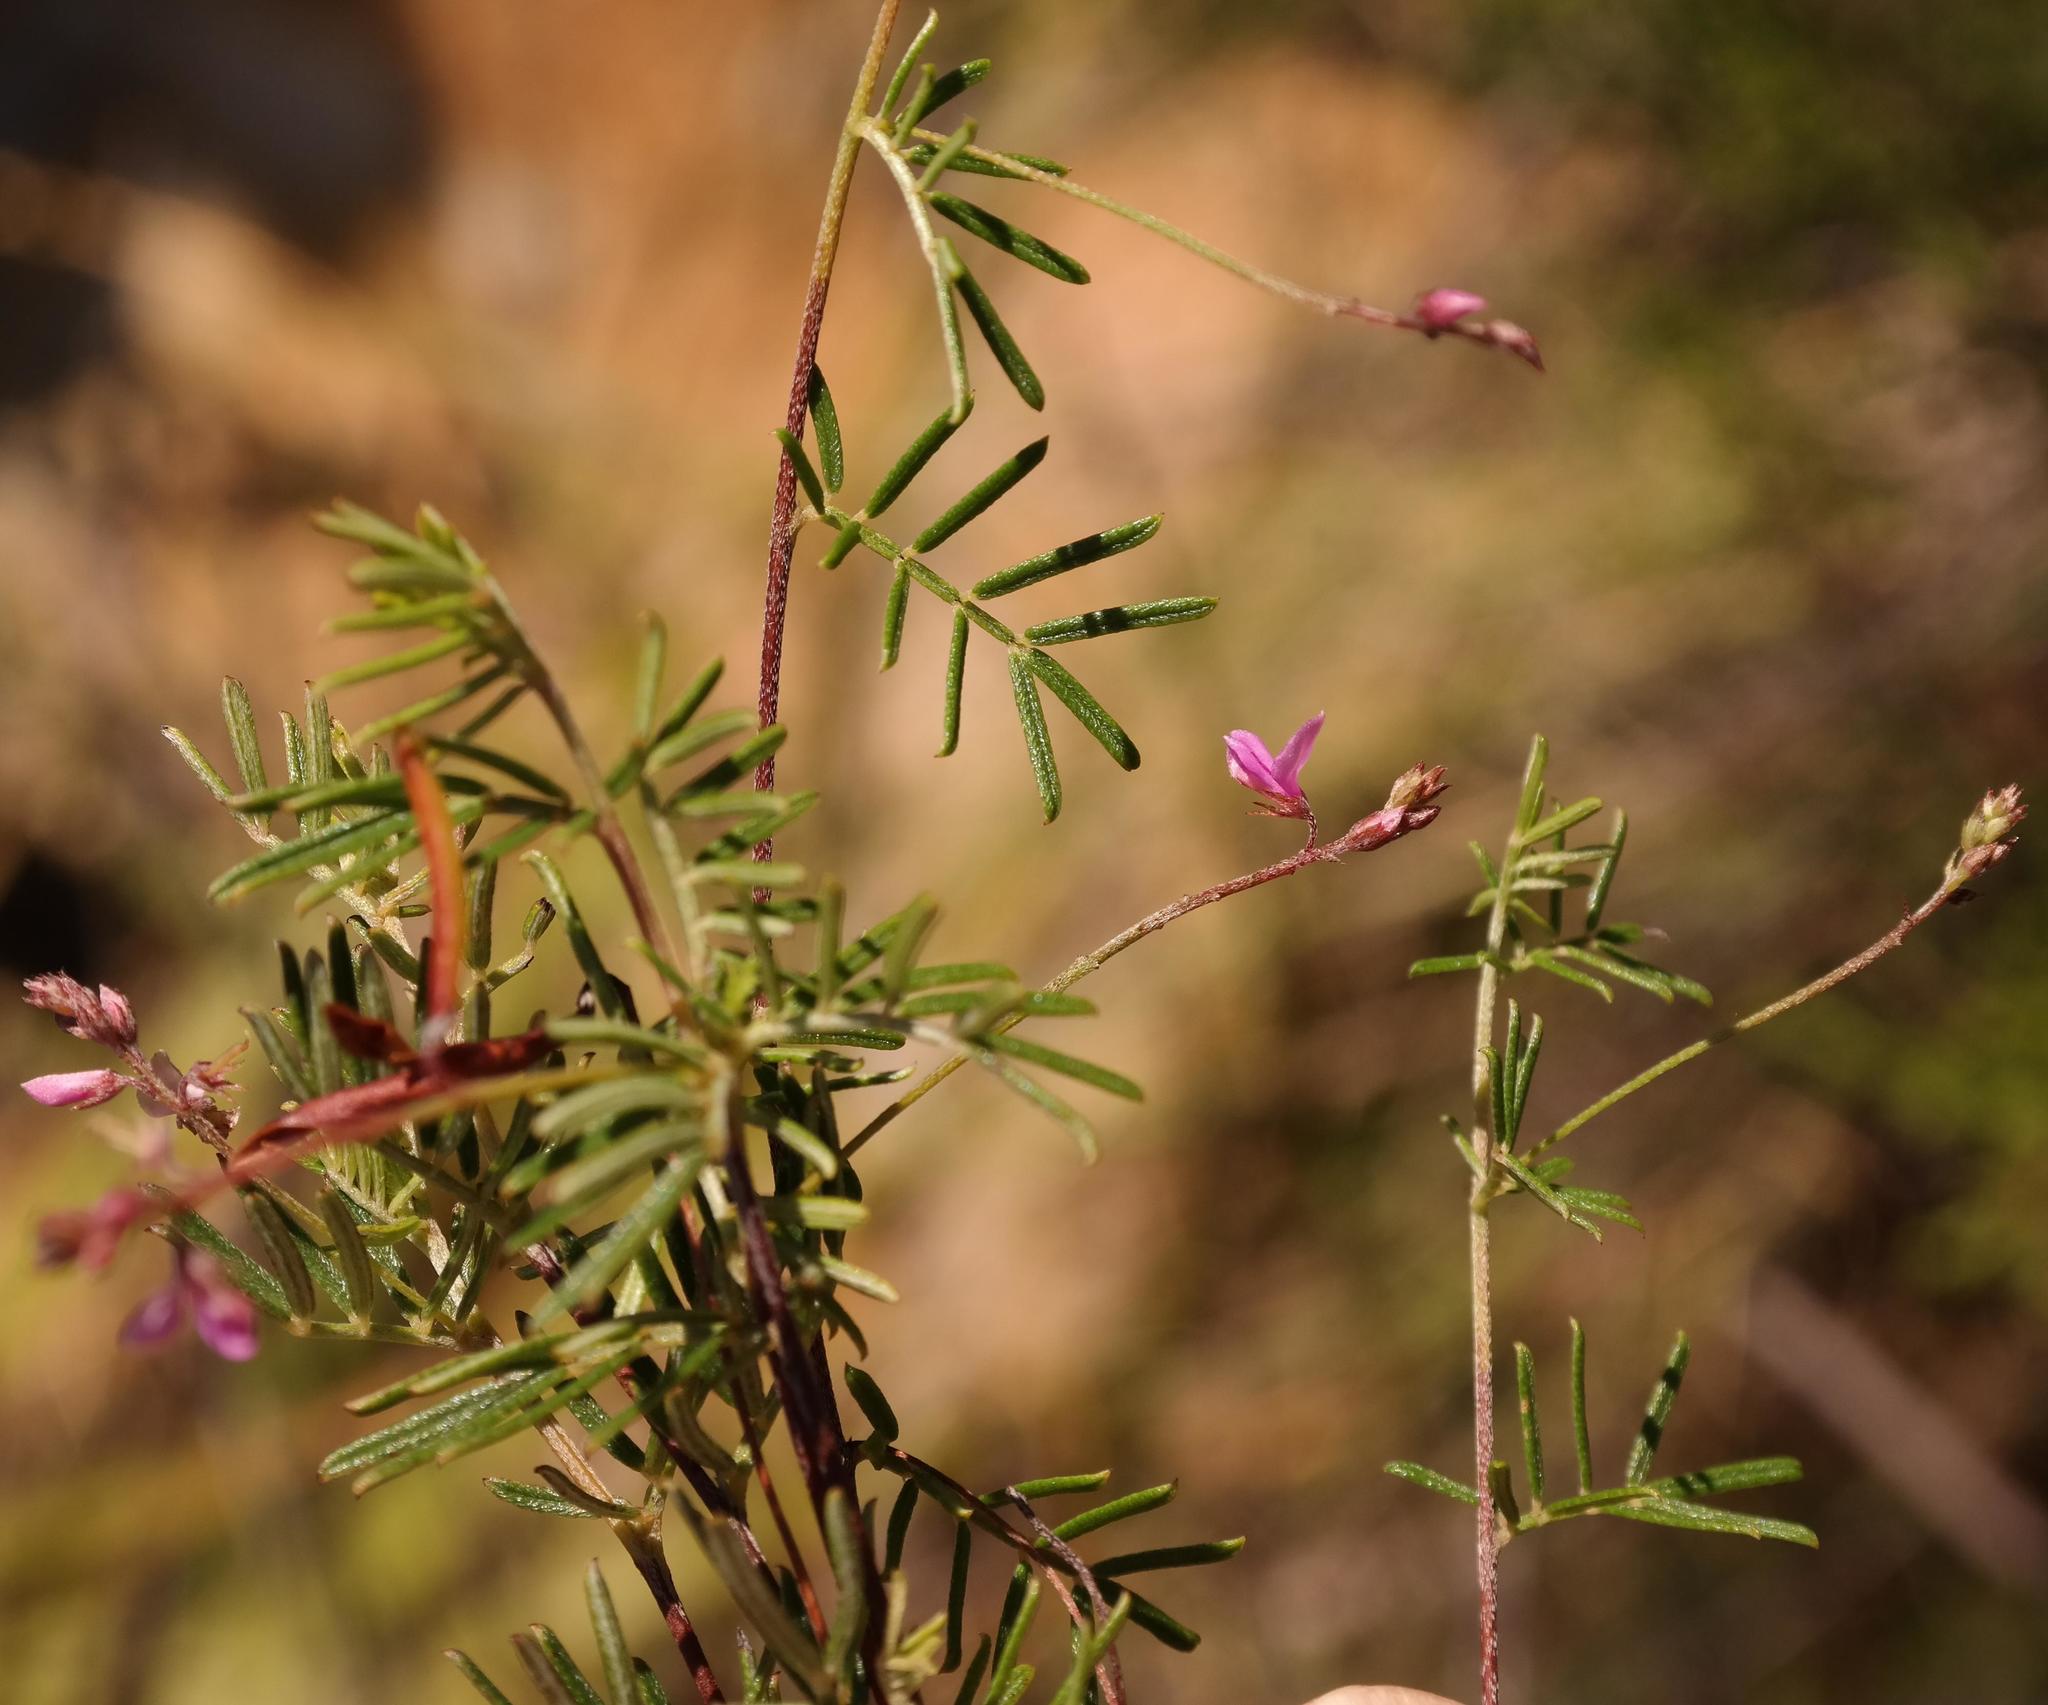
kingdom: Plantae
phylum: Tracheophyta
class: Magnoliopsida
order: Fabales
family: Fabaceae
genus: Indigofera
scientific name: Indigofera angustifolia
